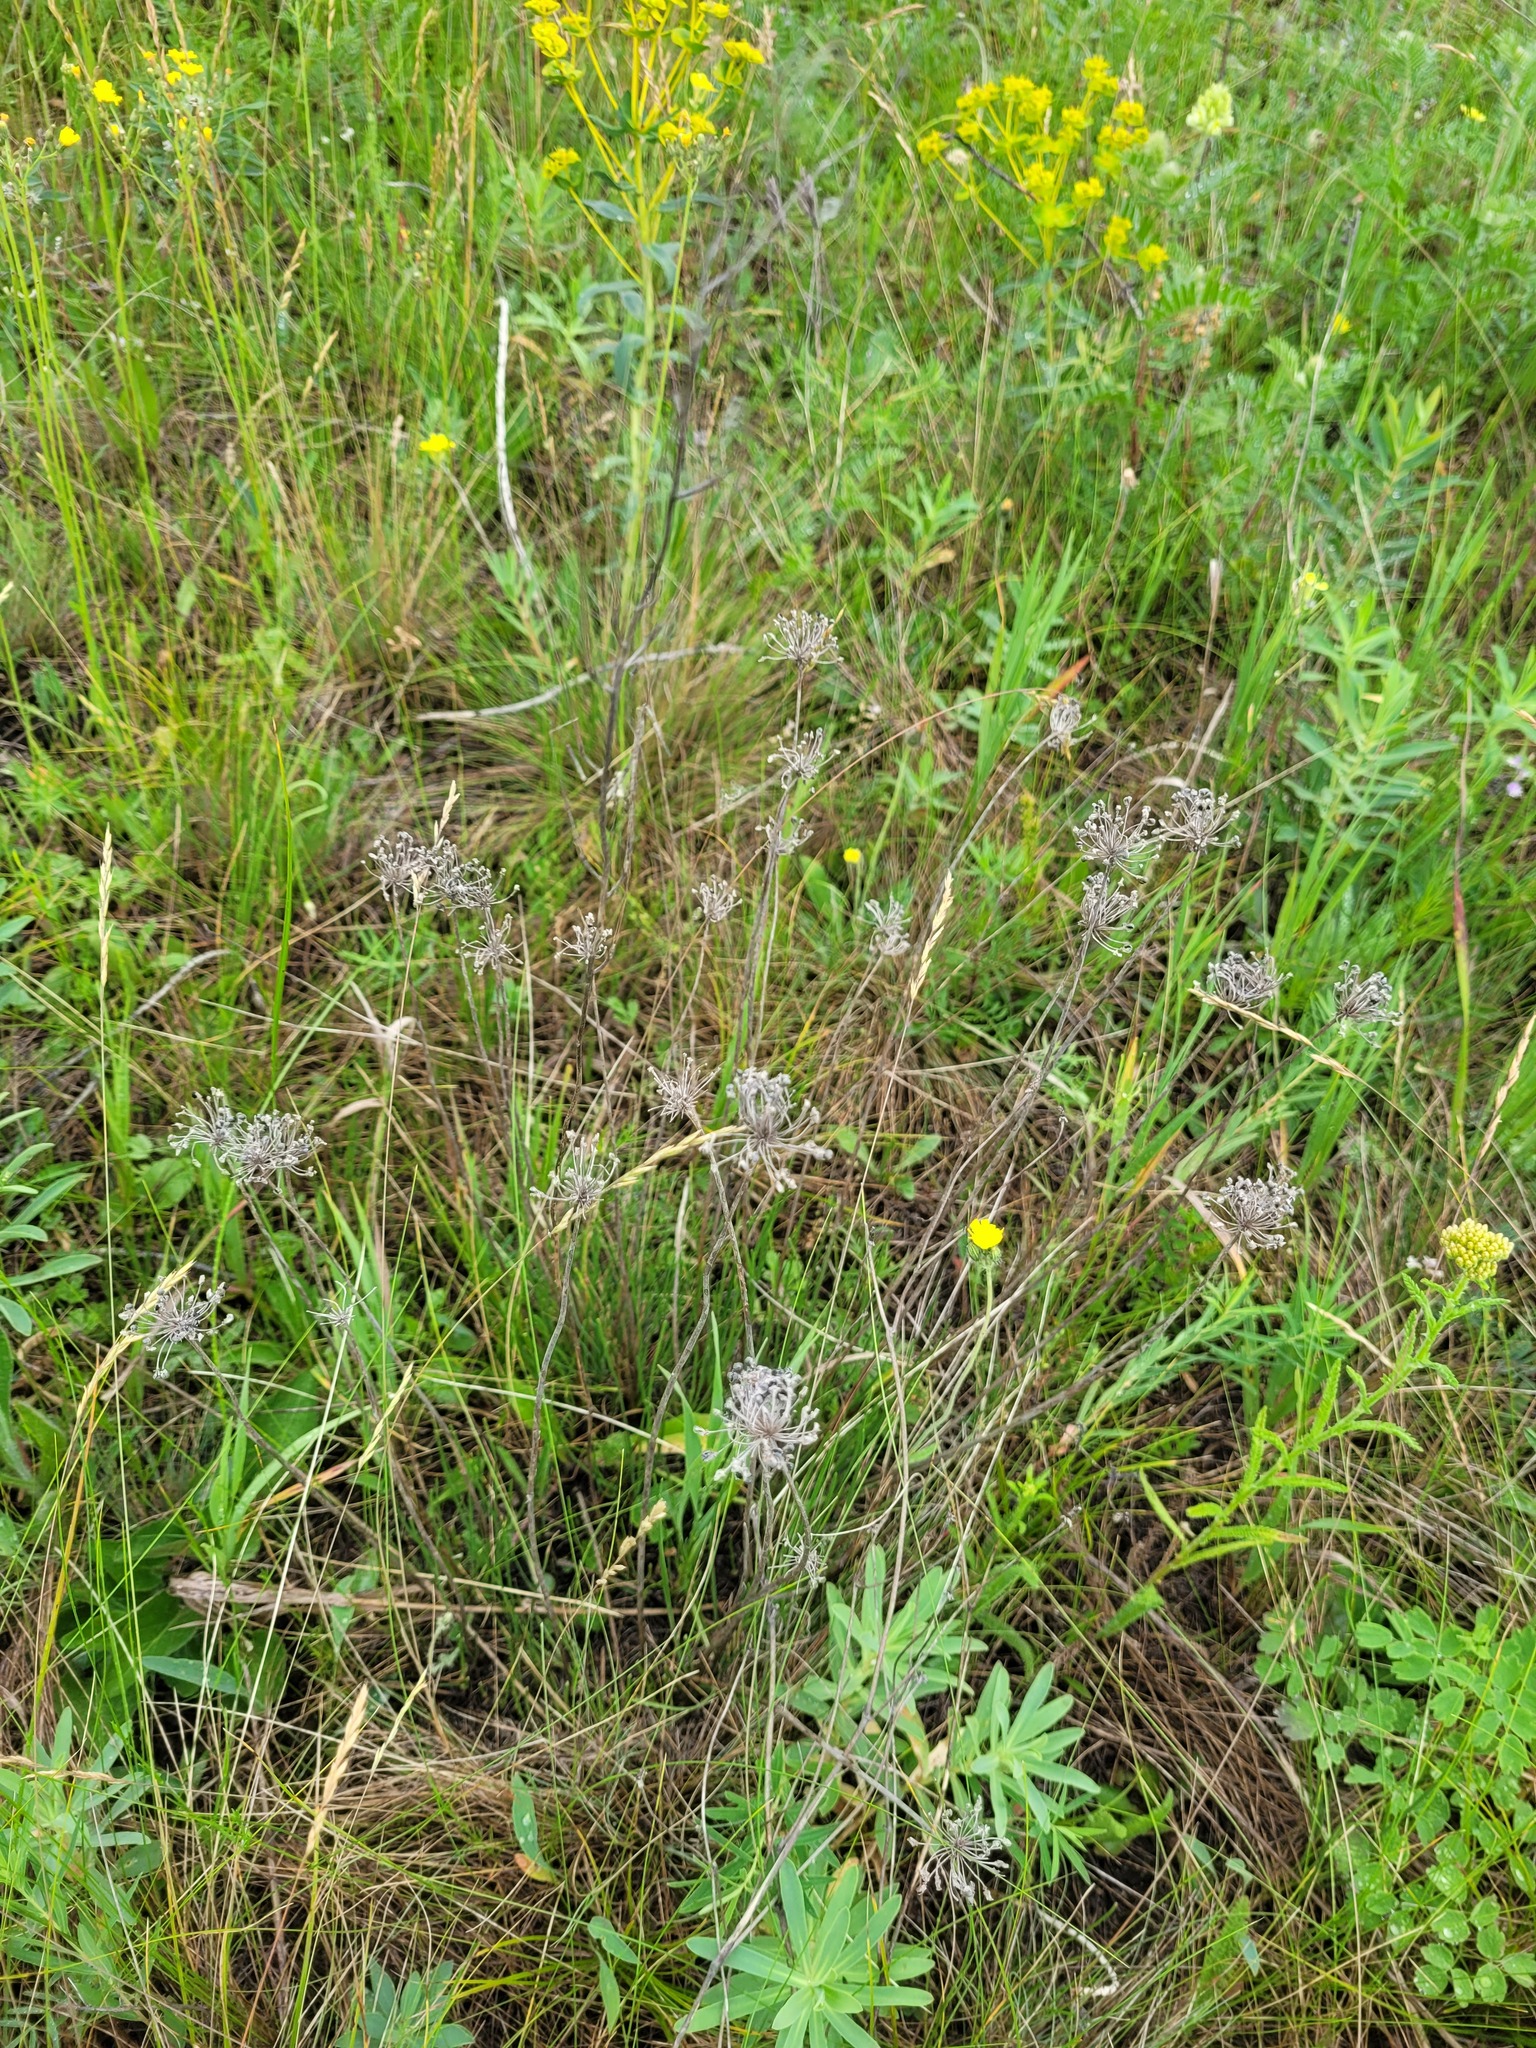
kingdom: Plantae
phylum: Tracheophyta
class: Liliopsida
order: Asparagales
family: Amaryllidaceae
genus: Allium
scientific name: Allium flavescens
